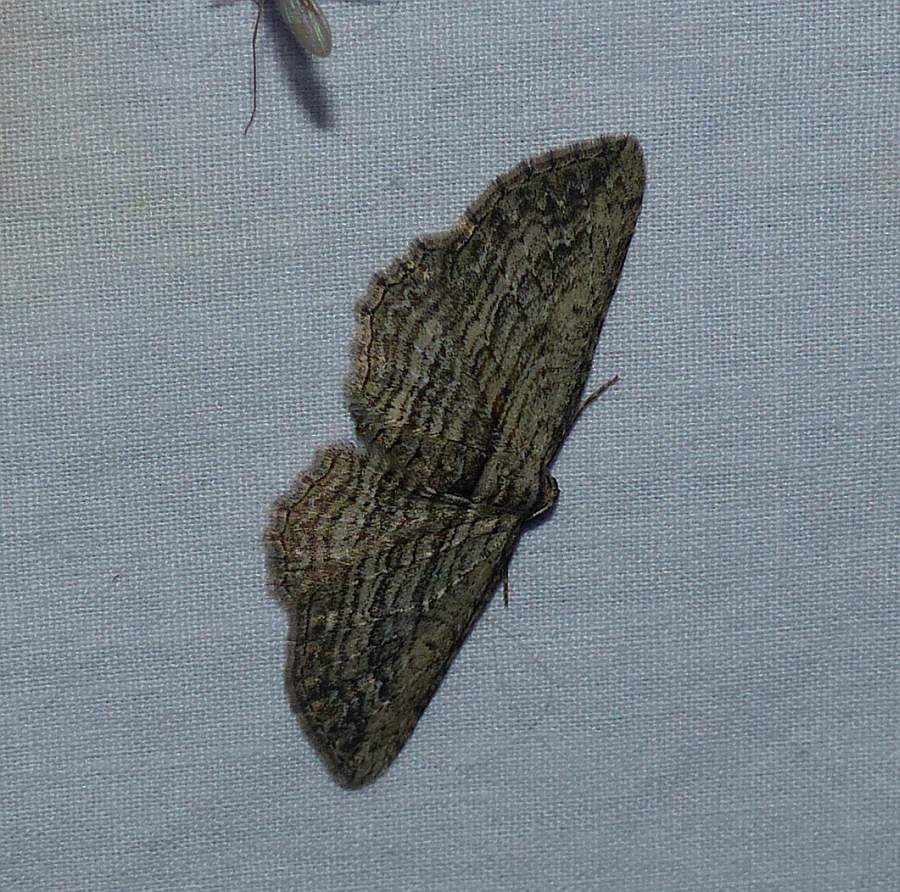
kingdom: Animalia
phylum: Arthropoda
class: Insecta
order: Lepidoptera
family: Geometridae
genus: Horisme
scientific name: Horisme intestinata
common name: Brown bark carpet
